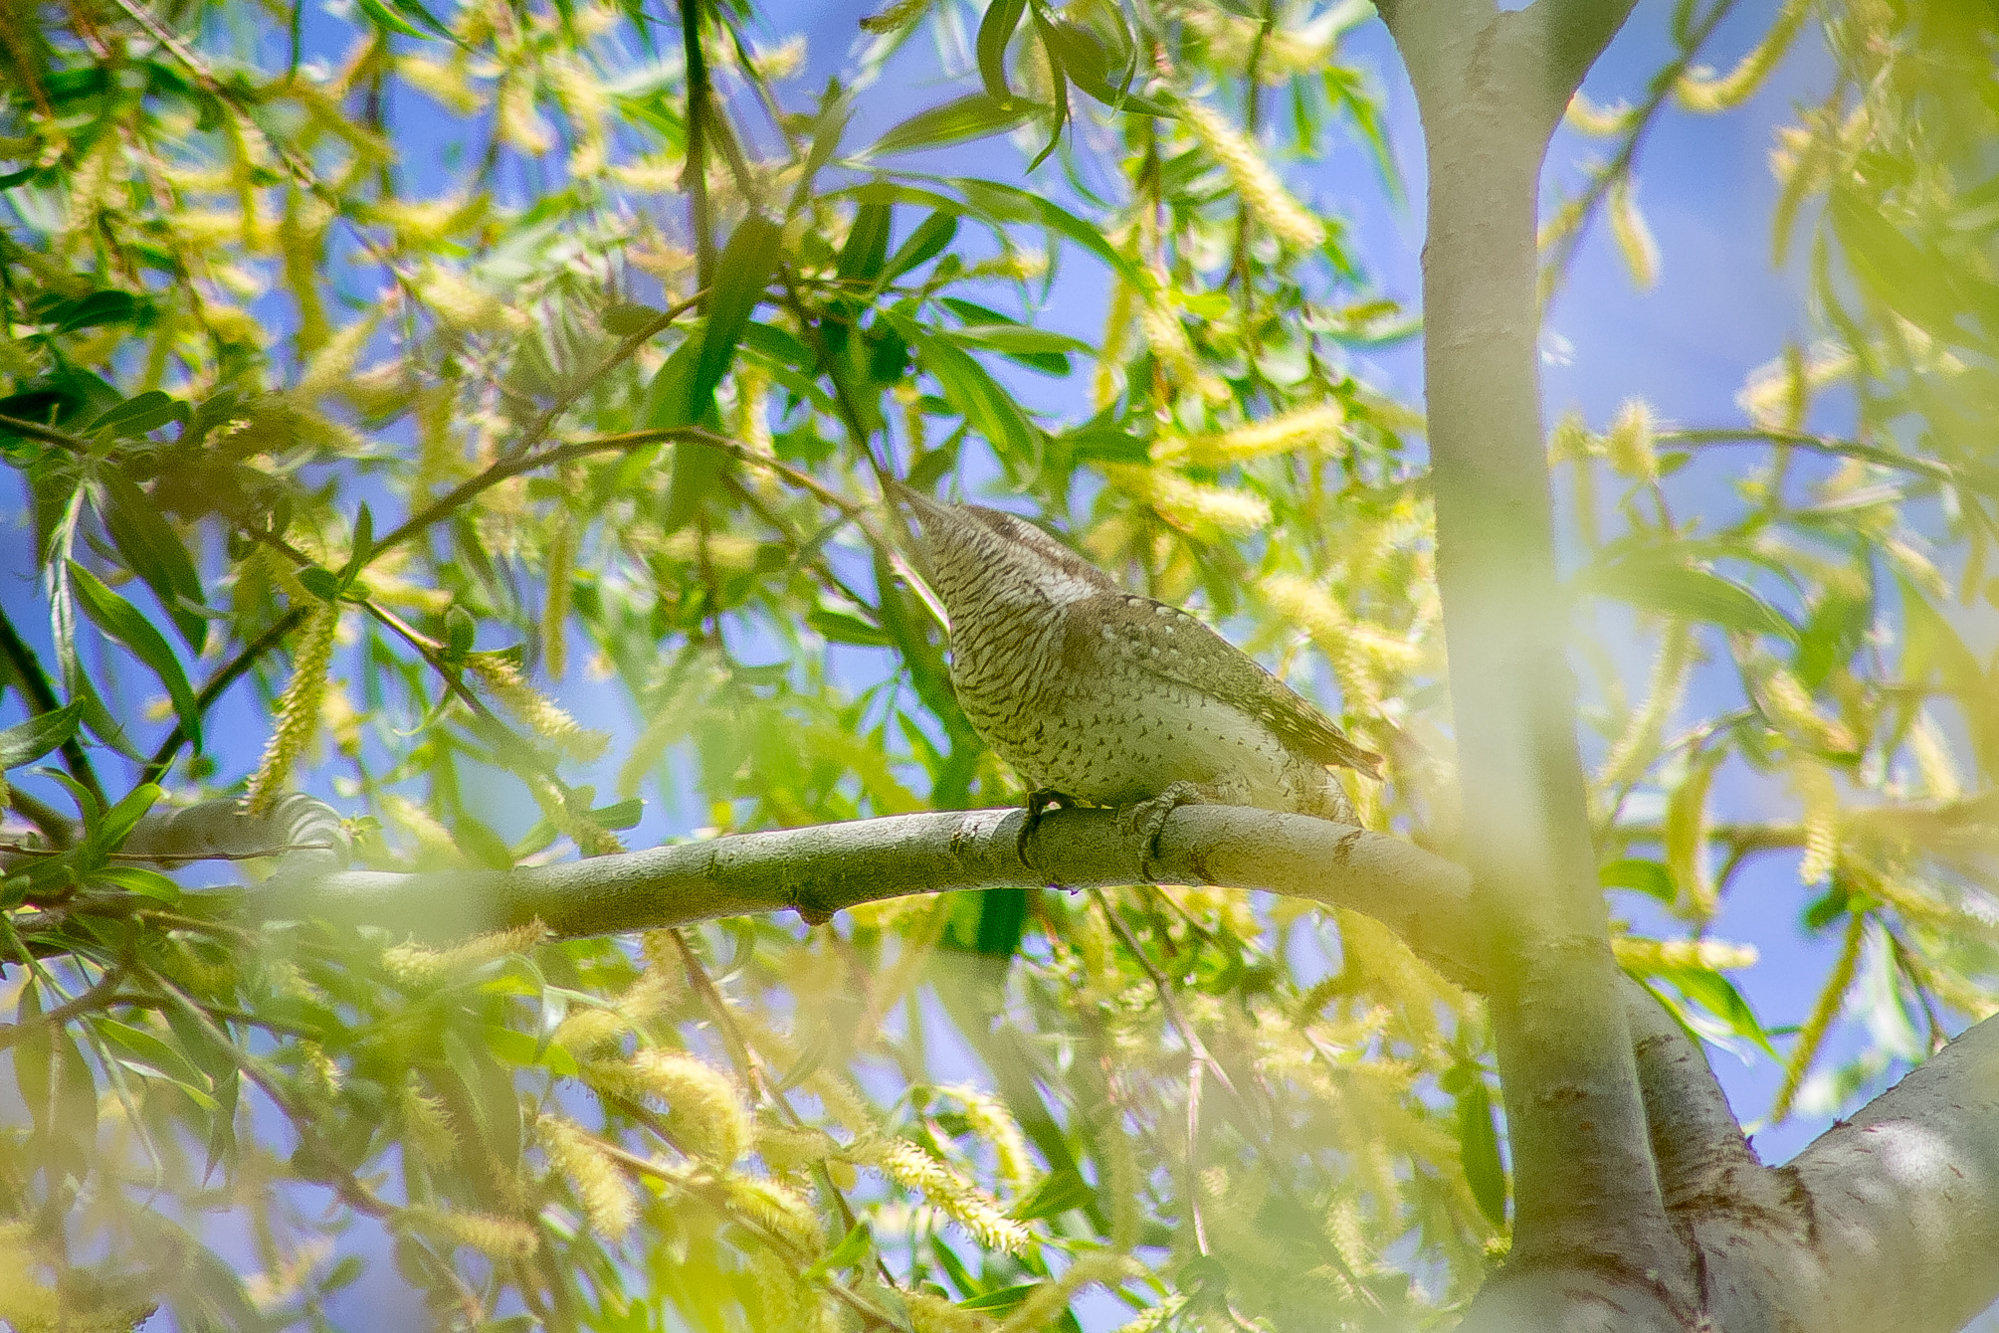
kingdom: Animalia
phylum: Chordata
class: Aves
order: Piciformes
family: Picidae
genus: Jynx
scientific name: Jynx torquilla
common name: Eurasian wryneck
